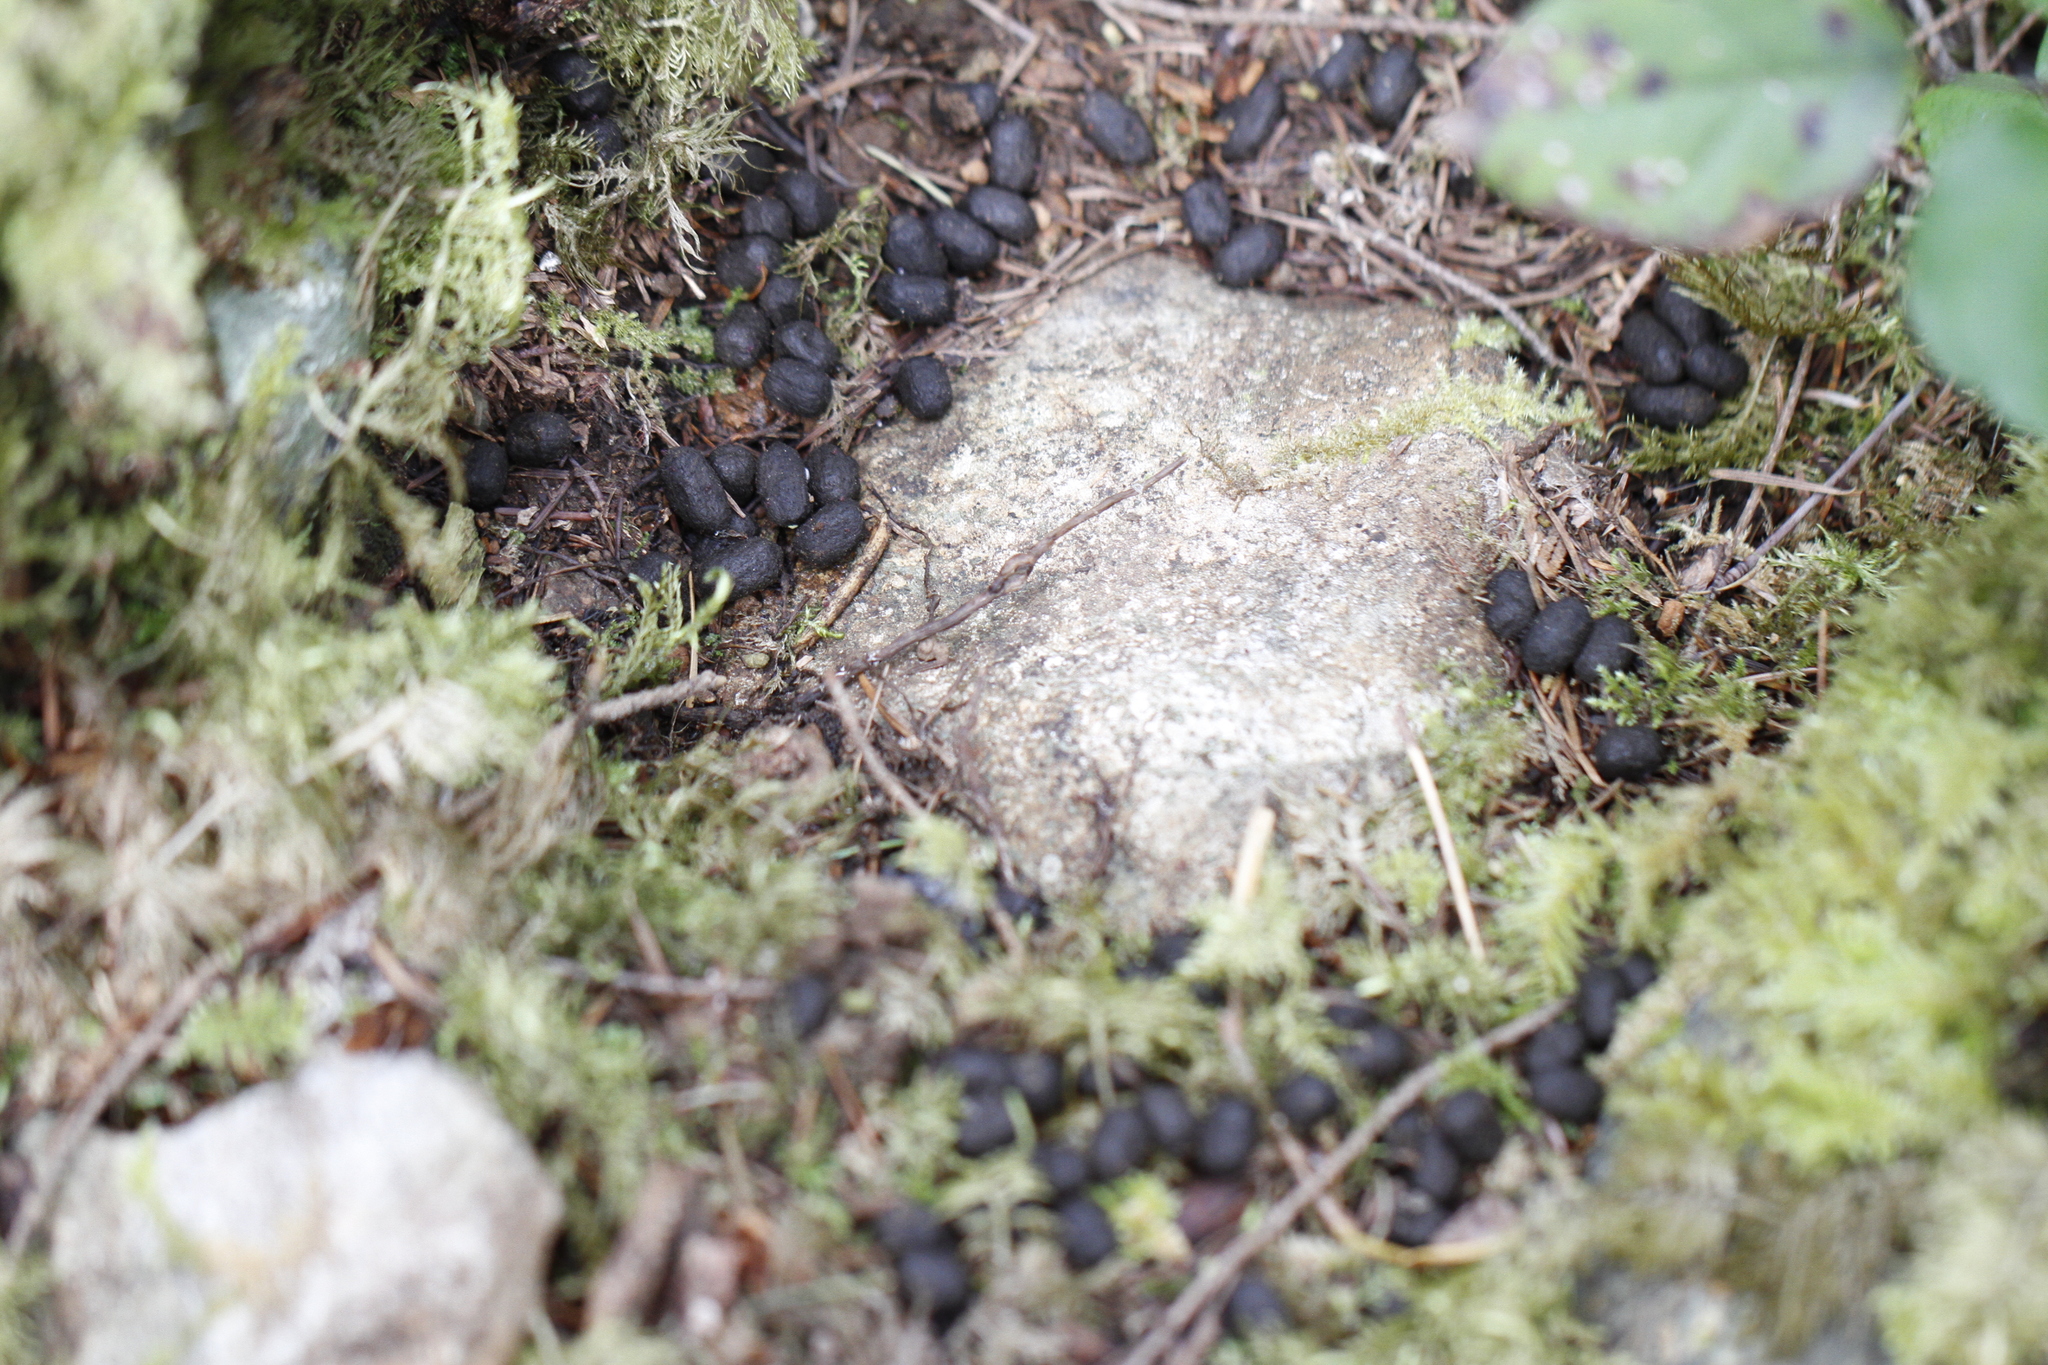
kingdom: Animalia
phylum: Chordata
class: Mammalia
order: Artiodactyla
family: Cervidae
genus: Odocoileus
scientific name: Odocoileus hemionus
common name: Mule deer
